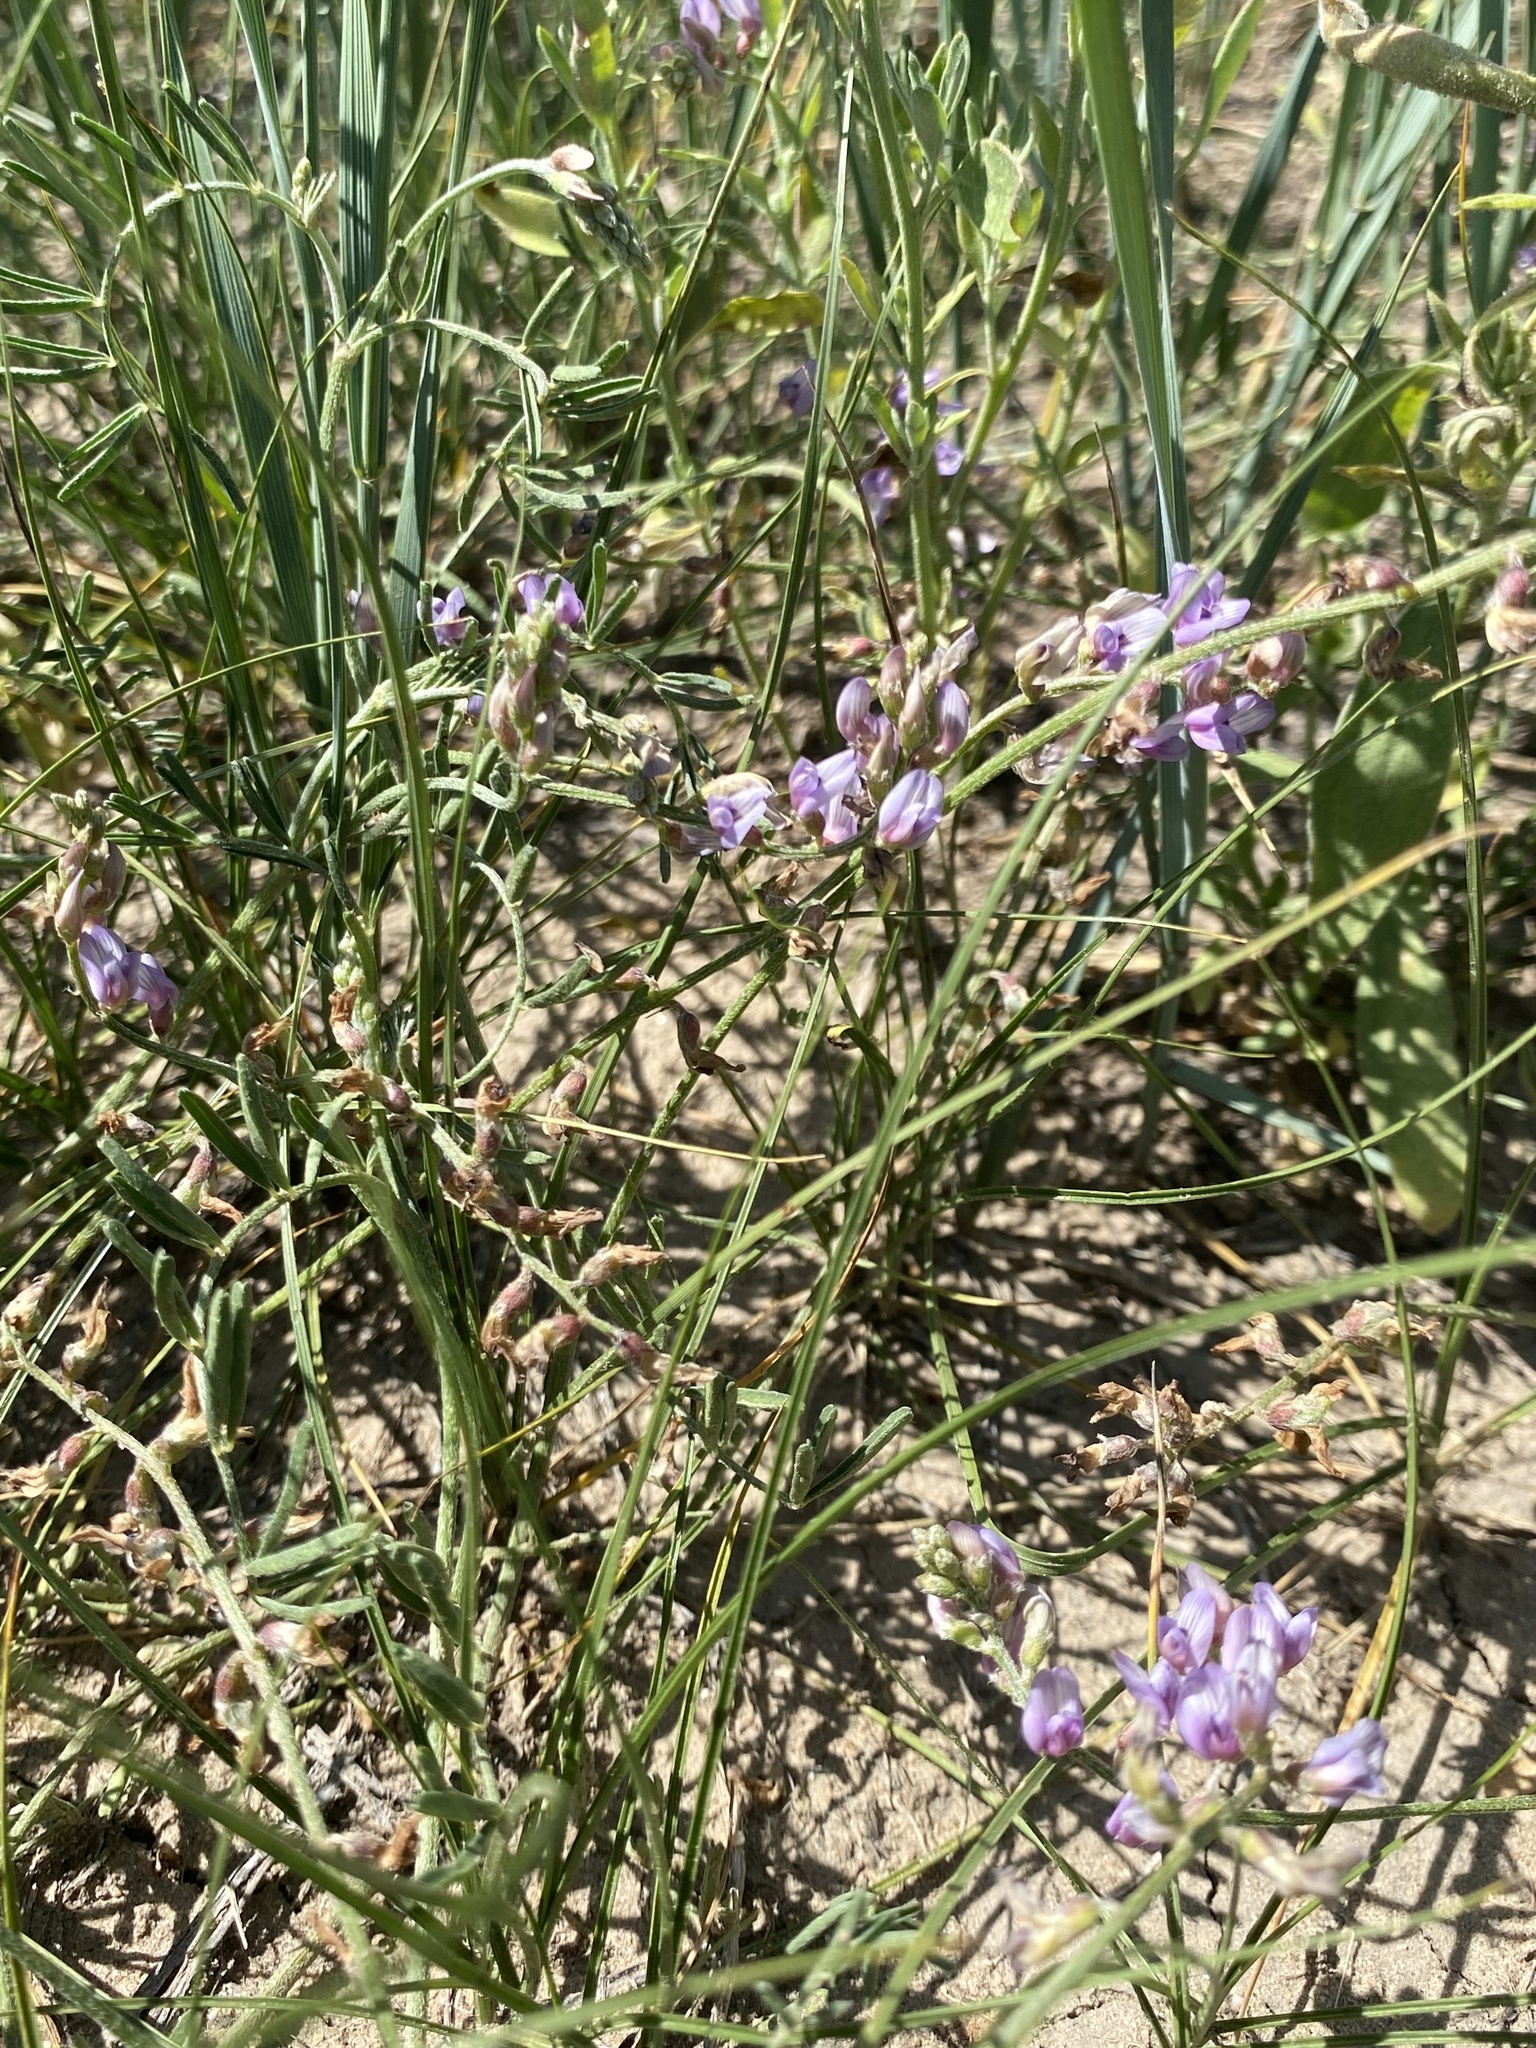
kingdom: Plantae
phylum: Tracheophyta
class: Magnoliopsida
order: Fabales
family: Fabaceae
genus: Astragalus
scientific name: Astragalus gracilis
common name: Slender milk-vetch
